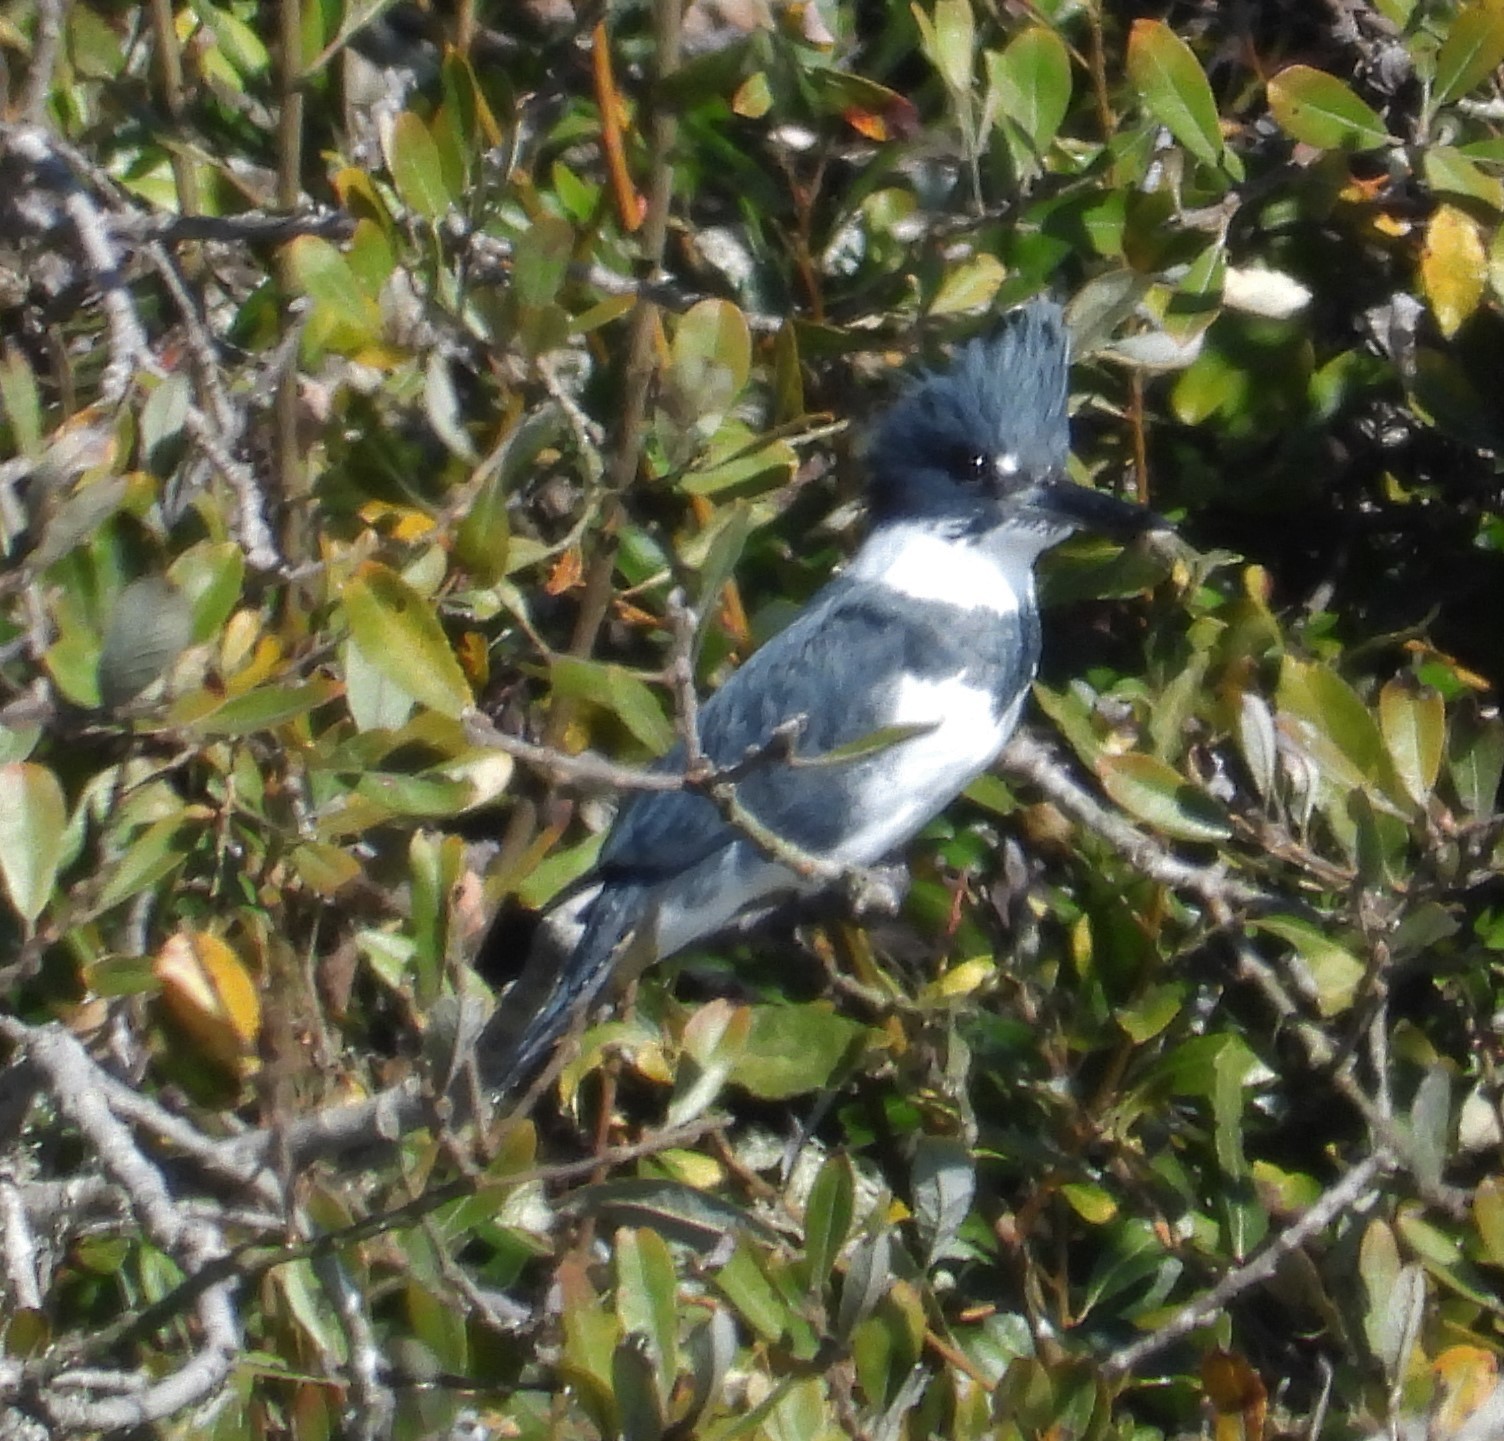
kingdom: Animalia
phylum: Chordata
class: Aves
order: Coraciiformes
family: Alcedinidae
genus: Megaceryle
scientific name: Megaceryle alcyon
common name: Belted kingfisher
